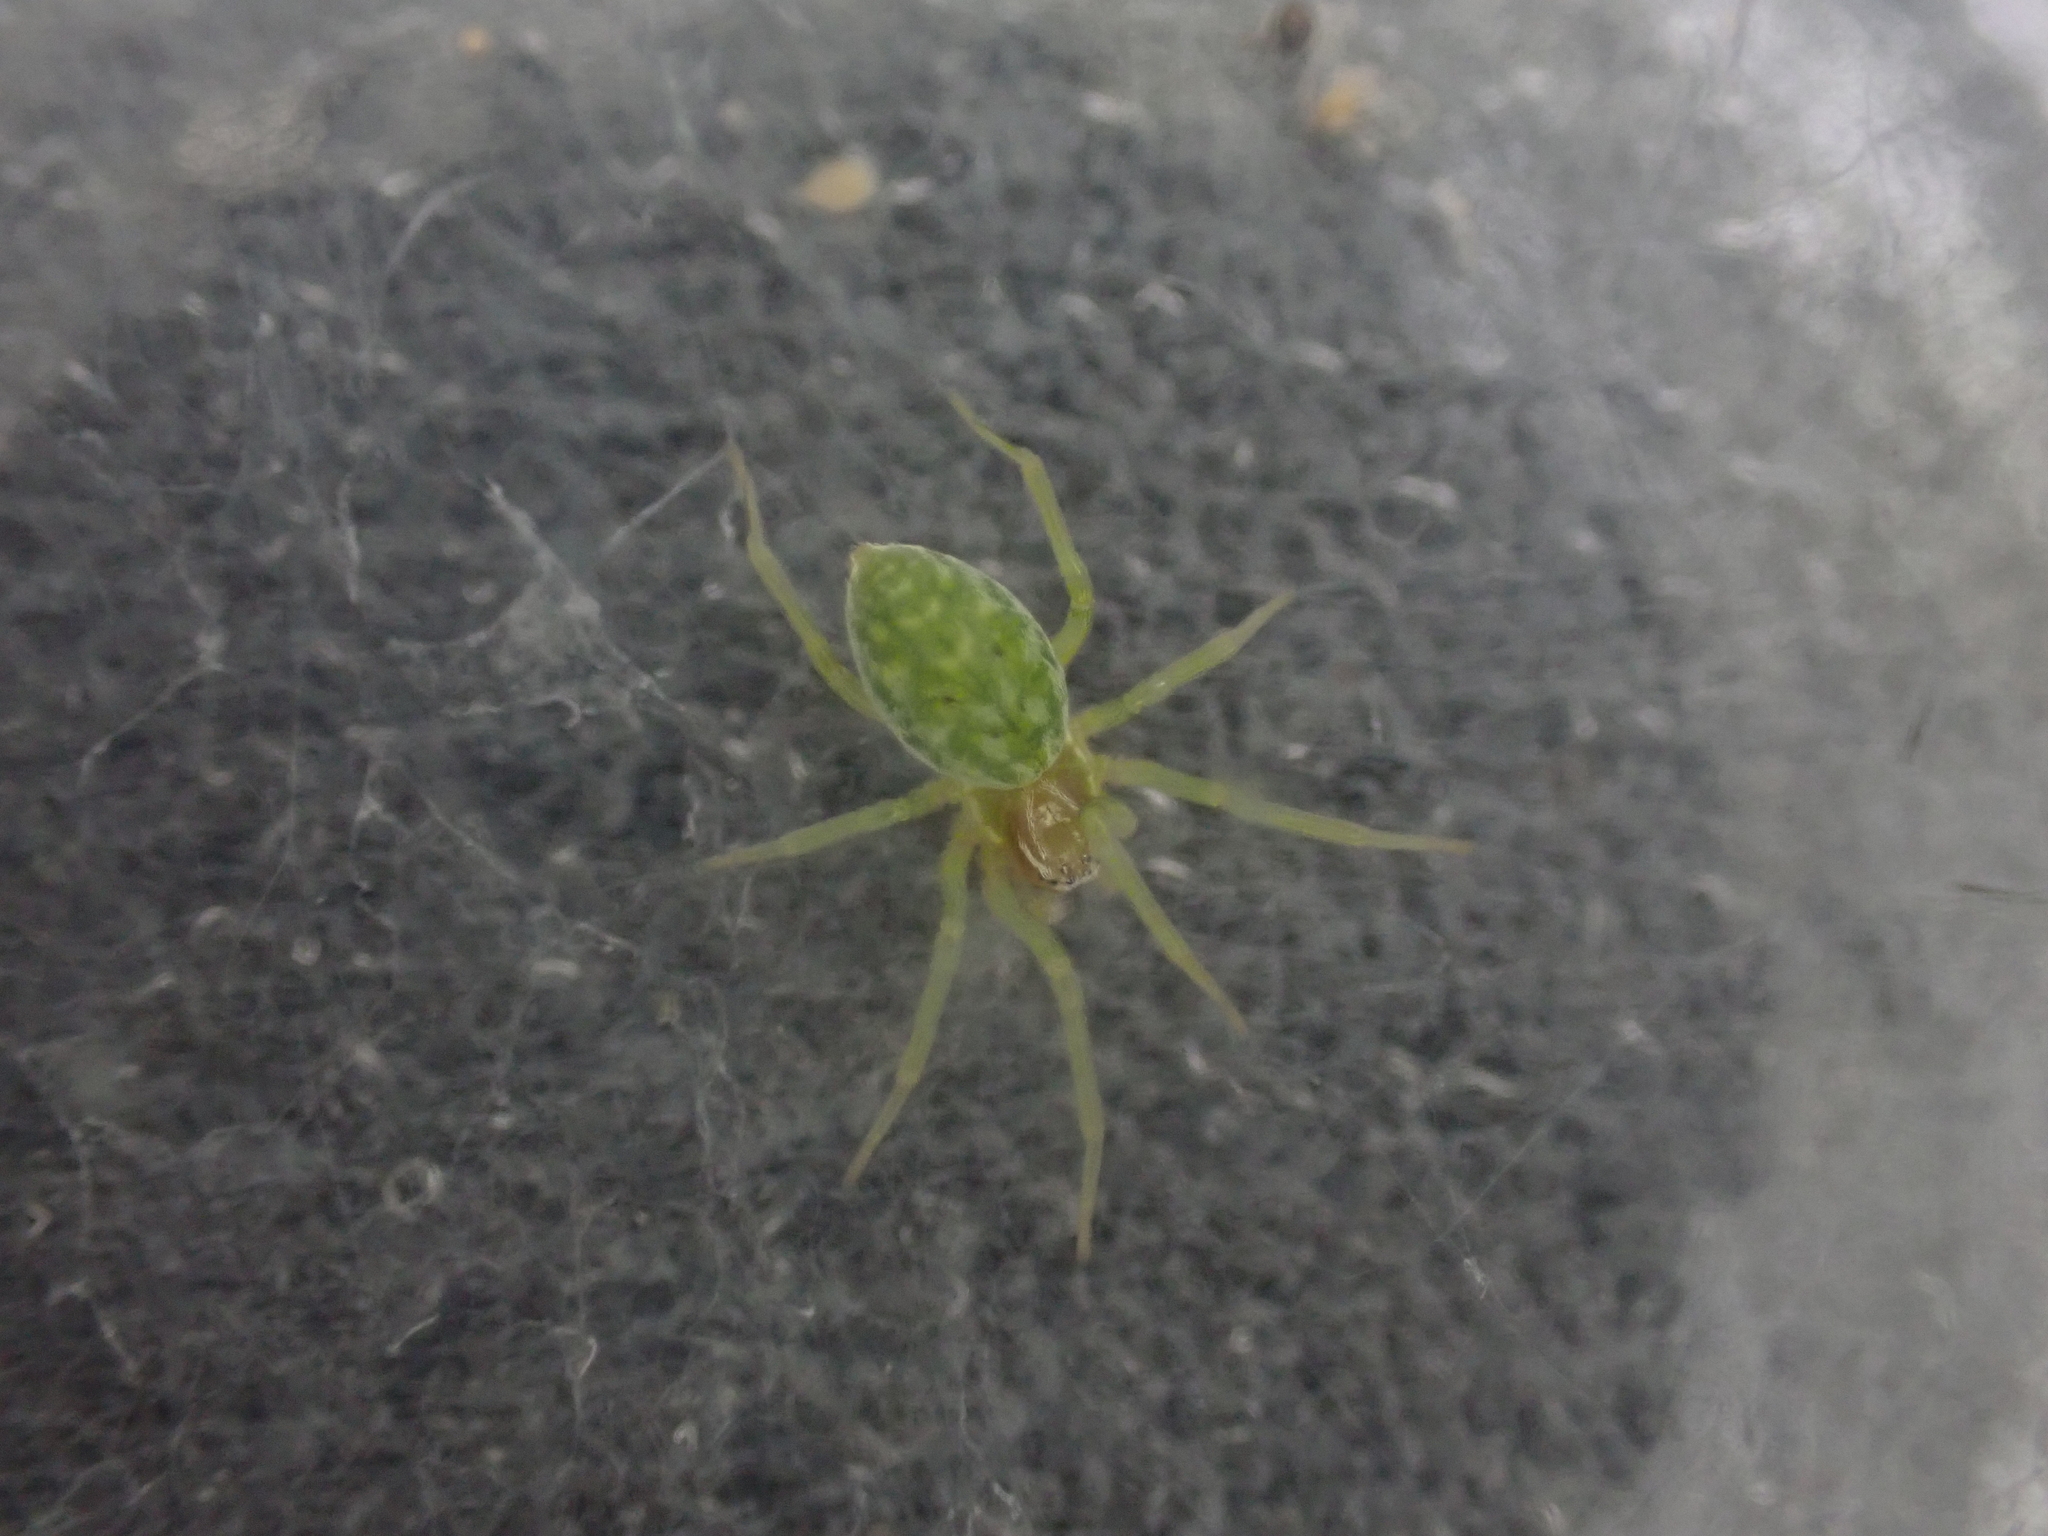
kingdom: Animalia
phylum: Arthropoda
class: Arachnida
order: Araneae
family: Dictynidae
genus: Nigma
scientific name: Nigma walckenaeri
